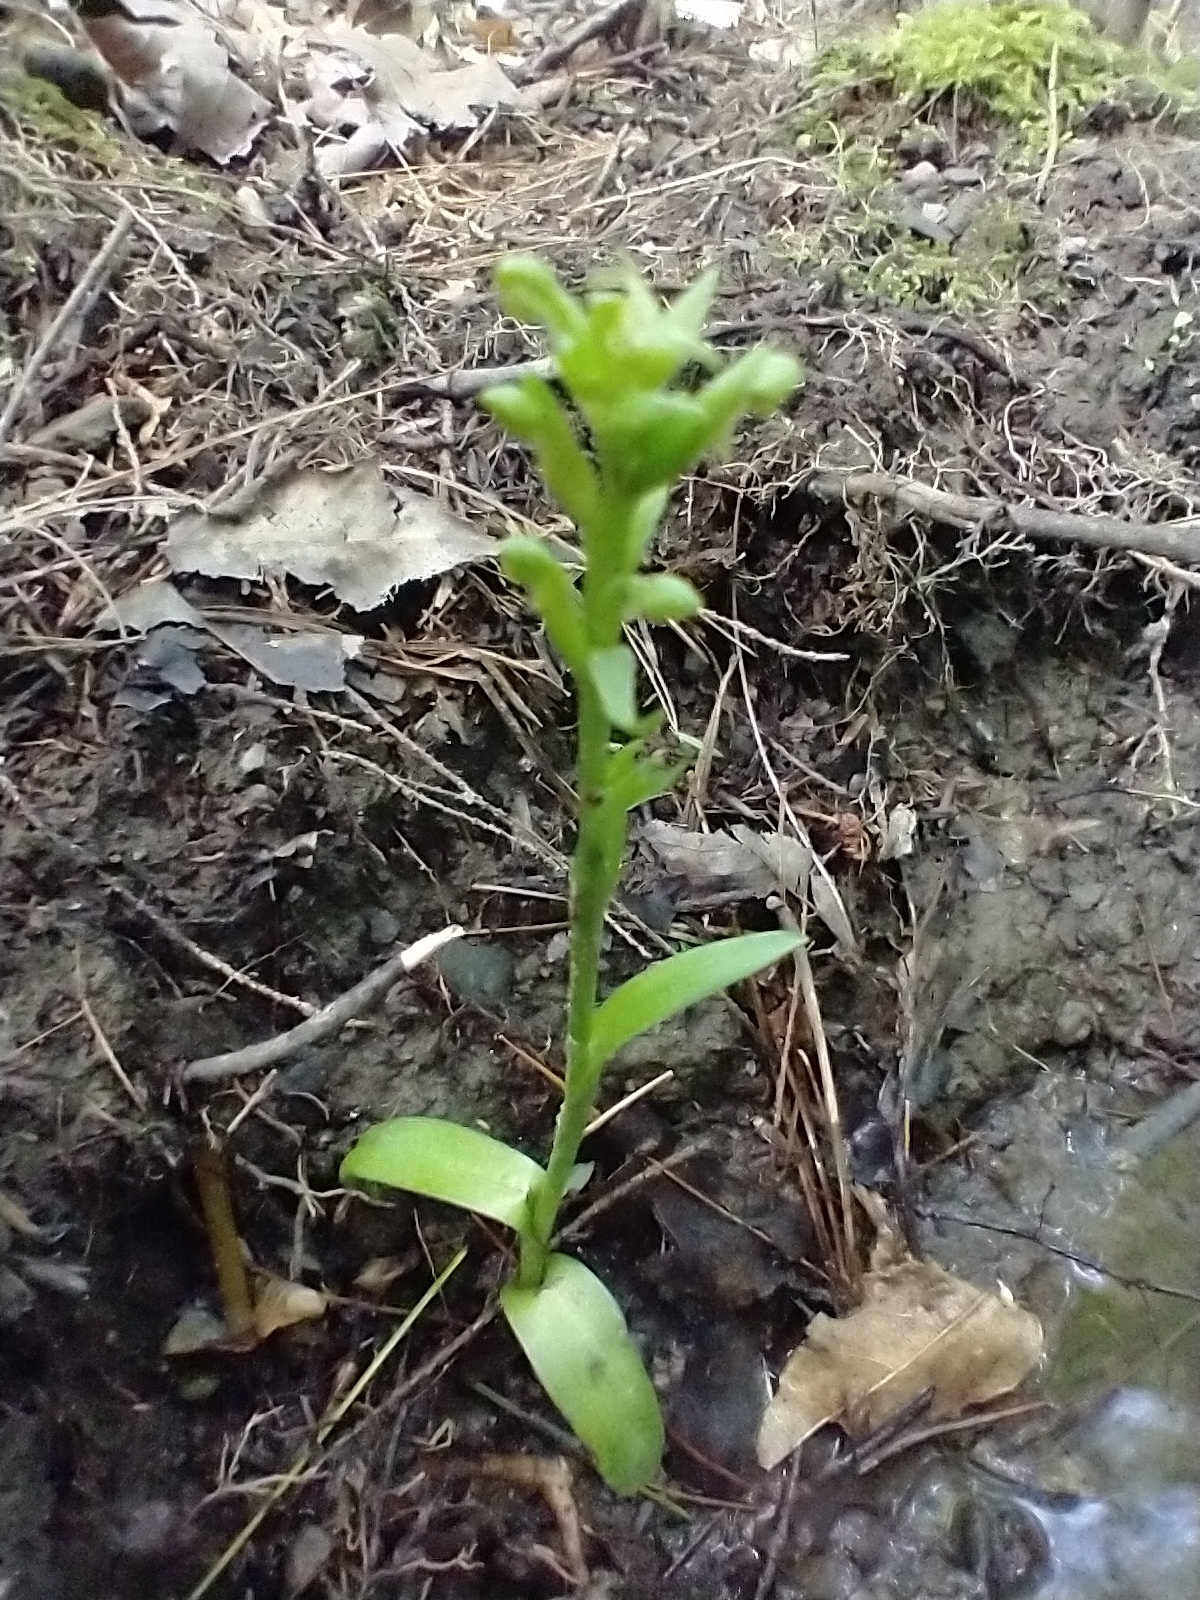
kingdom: Plantae
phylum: Tracheophyta
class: Liliopsida
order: Asparagales
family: Orchidaceae
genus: Platanthera
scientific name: Platanthera aquilonis
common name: Northern green orchid
